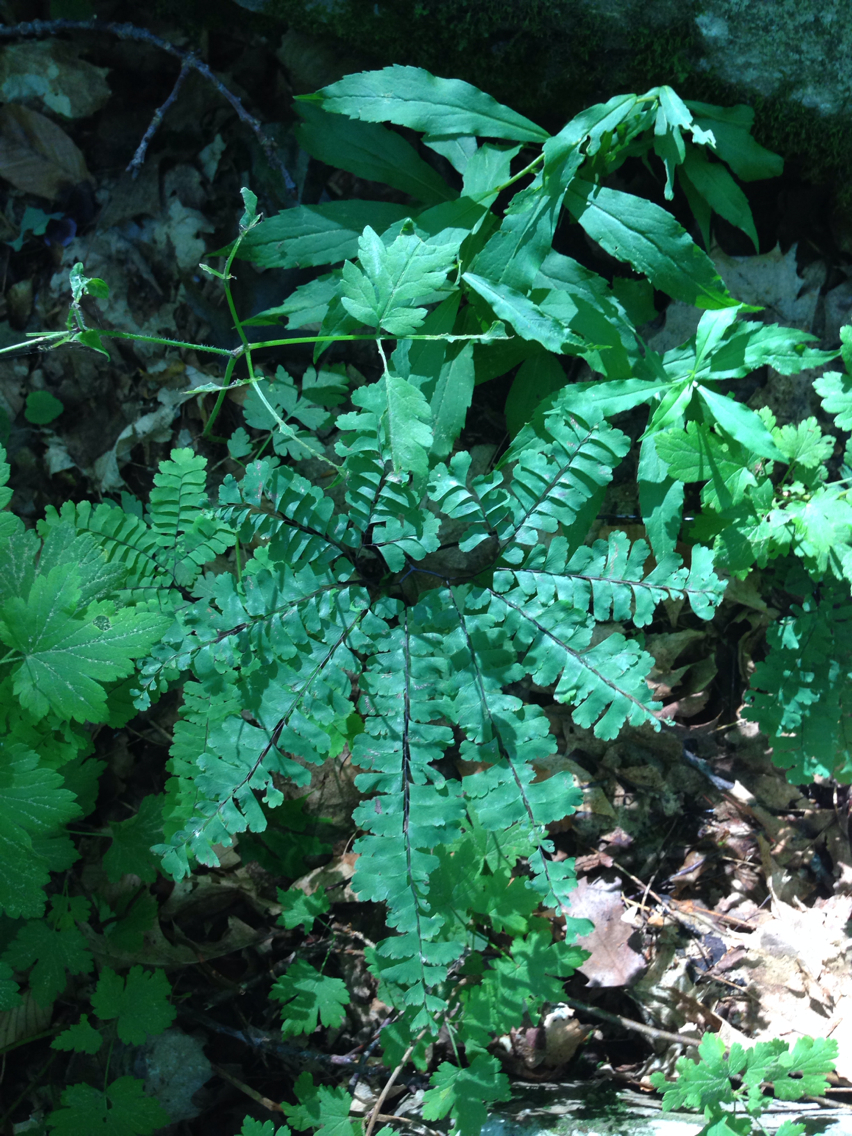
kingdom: Plantae
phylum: Tracheophyta
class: Polypodiopsida
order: Polypodiales
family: Pteridaceae
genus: Adiantum
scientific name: Adiantum pedatum
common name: Five-finger fern
